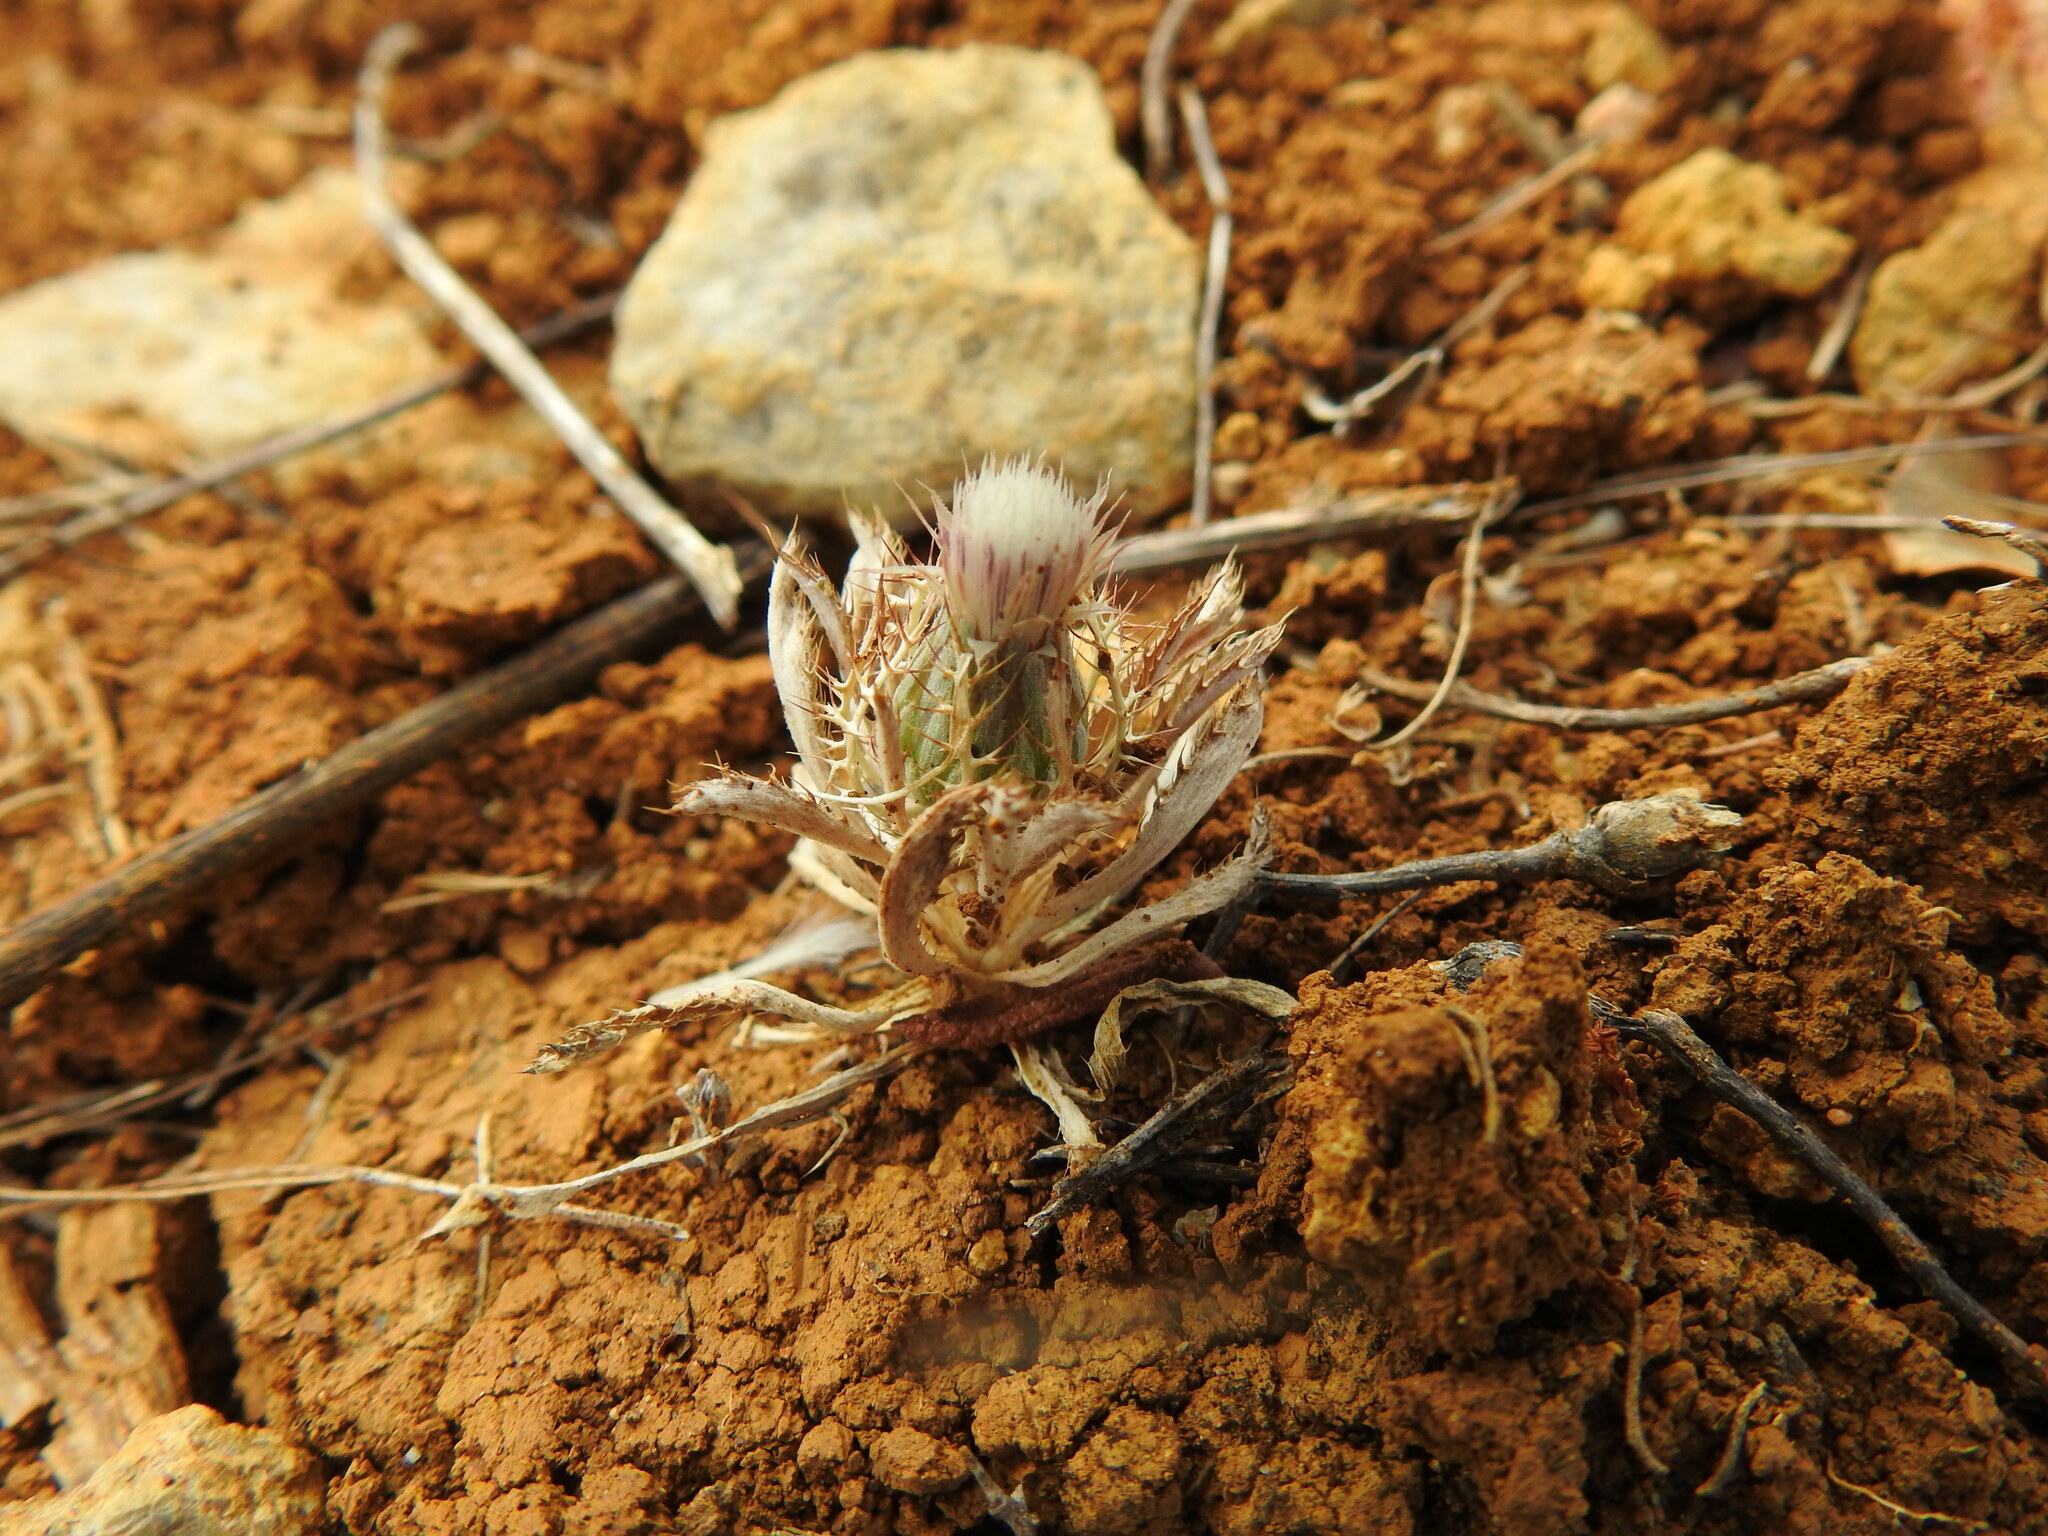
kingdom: Plantae
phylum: Tracheophyta
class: Magnoliopsida
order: Asterales
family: Asteraceae
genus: Atractylis
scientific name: Atractylis cancellata
